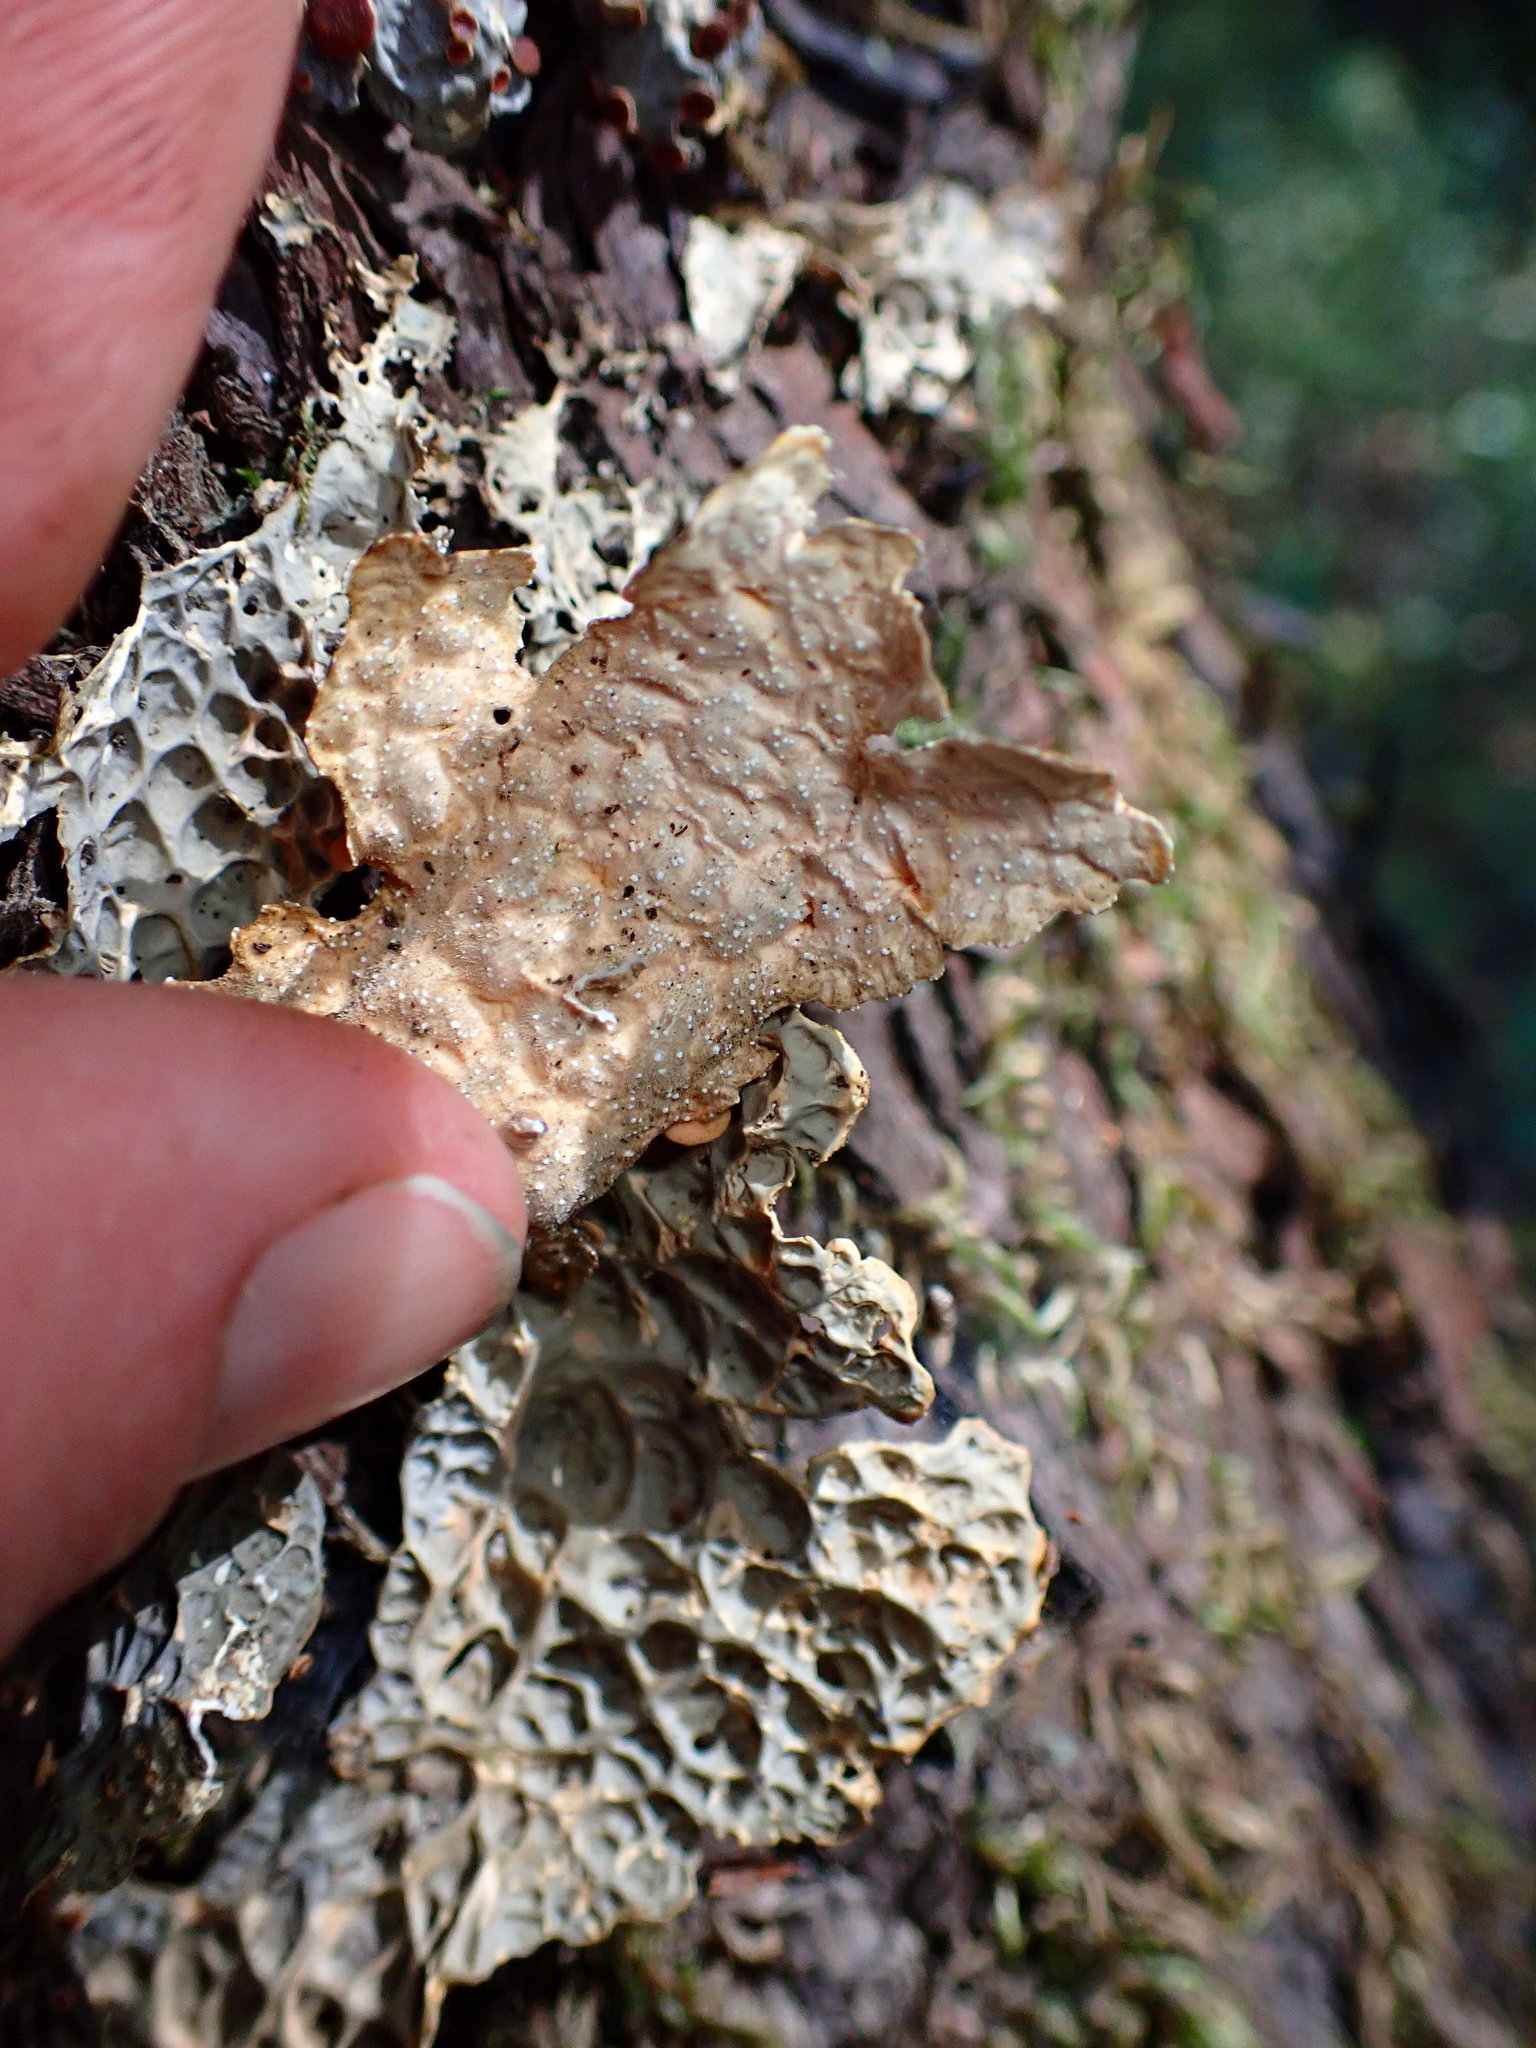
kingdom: Fungi
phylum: Ascomycota
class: Lecanoromycetes
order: Peltigerales
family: Lobariaceae
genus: Lobaria
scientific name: Lobaria anthraspis
